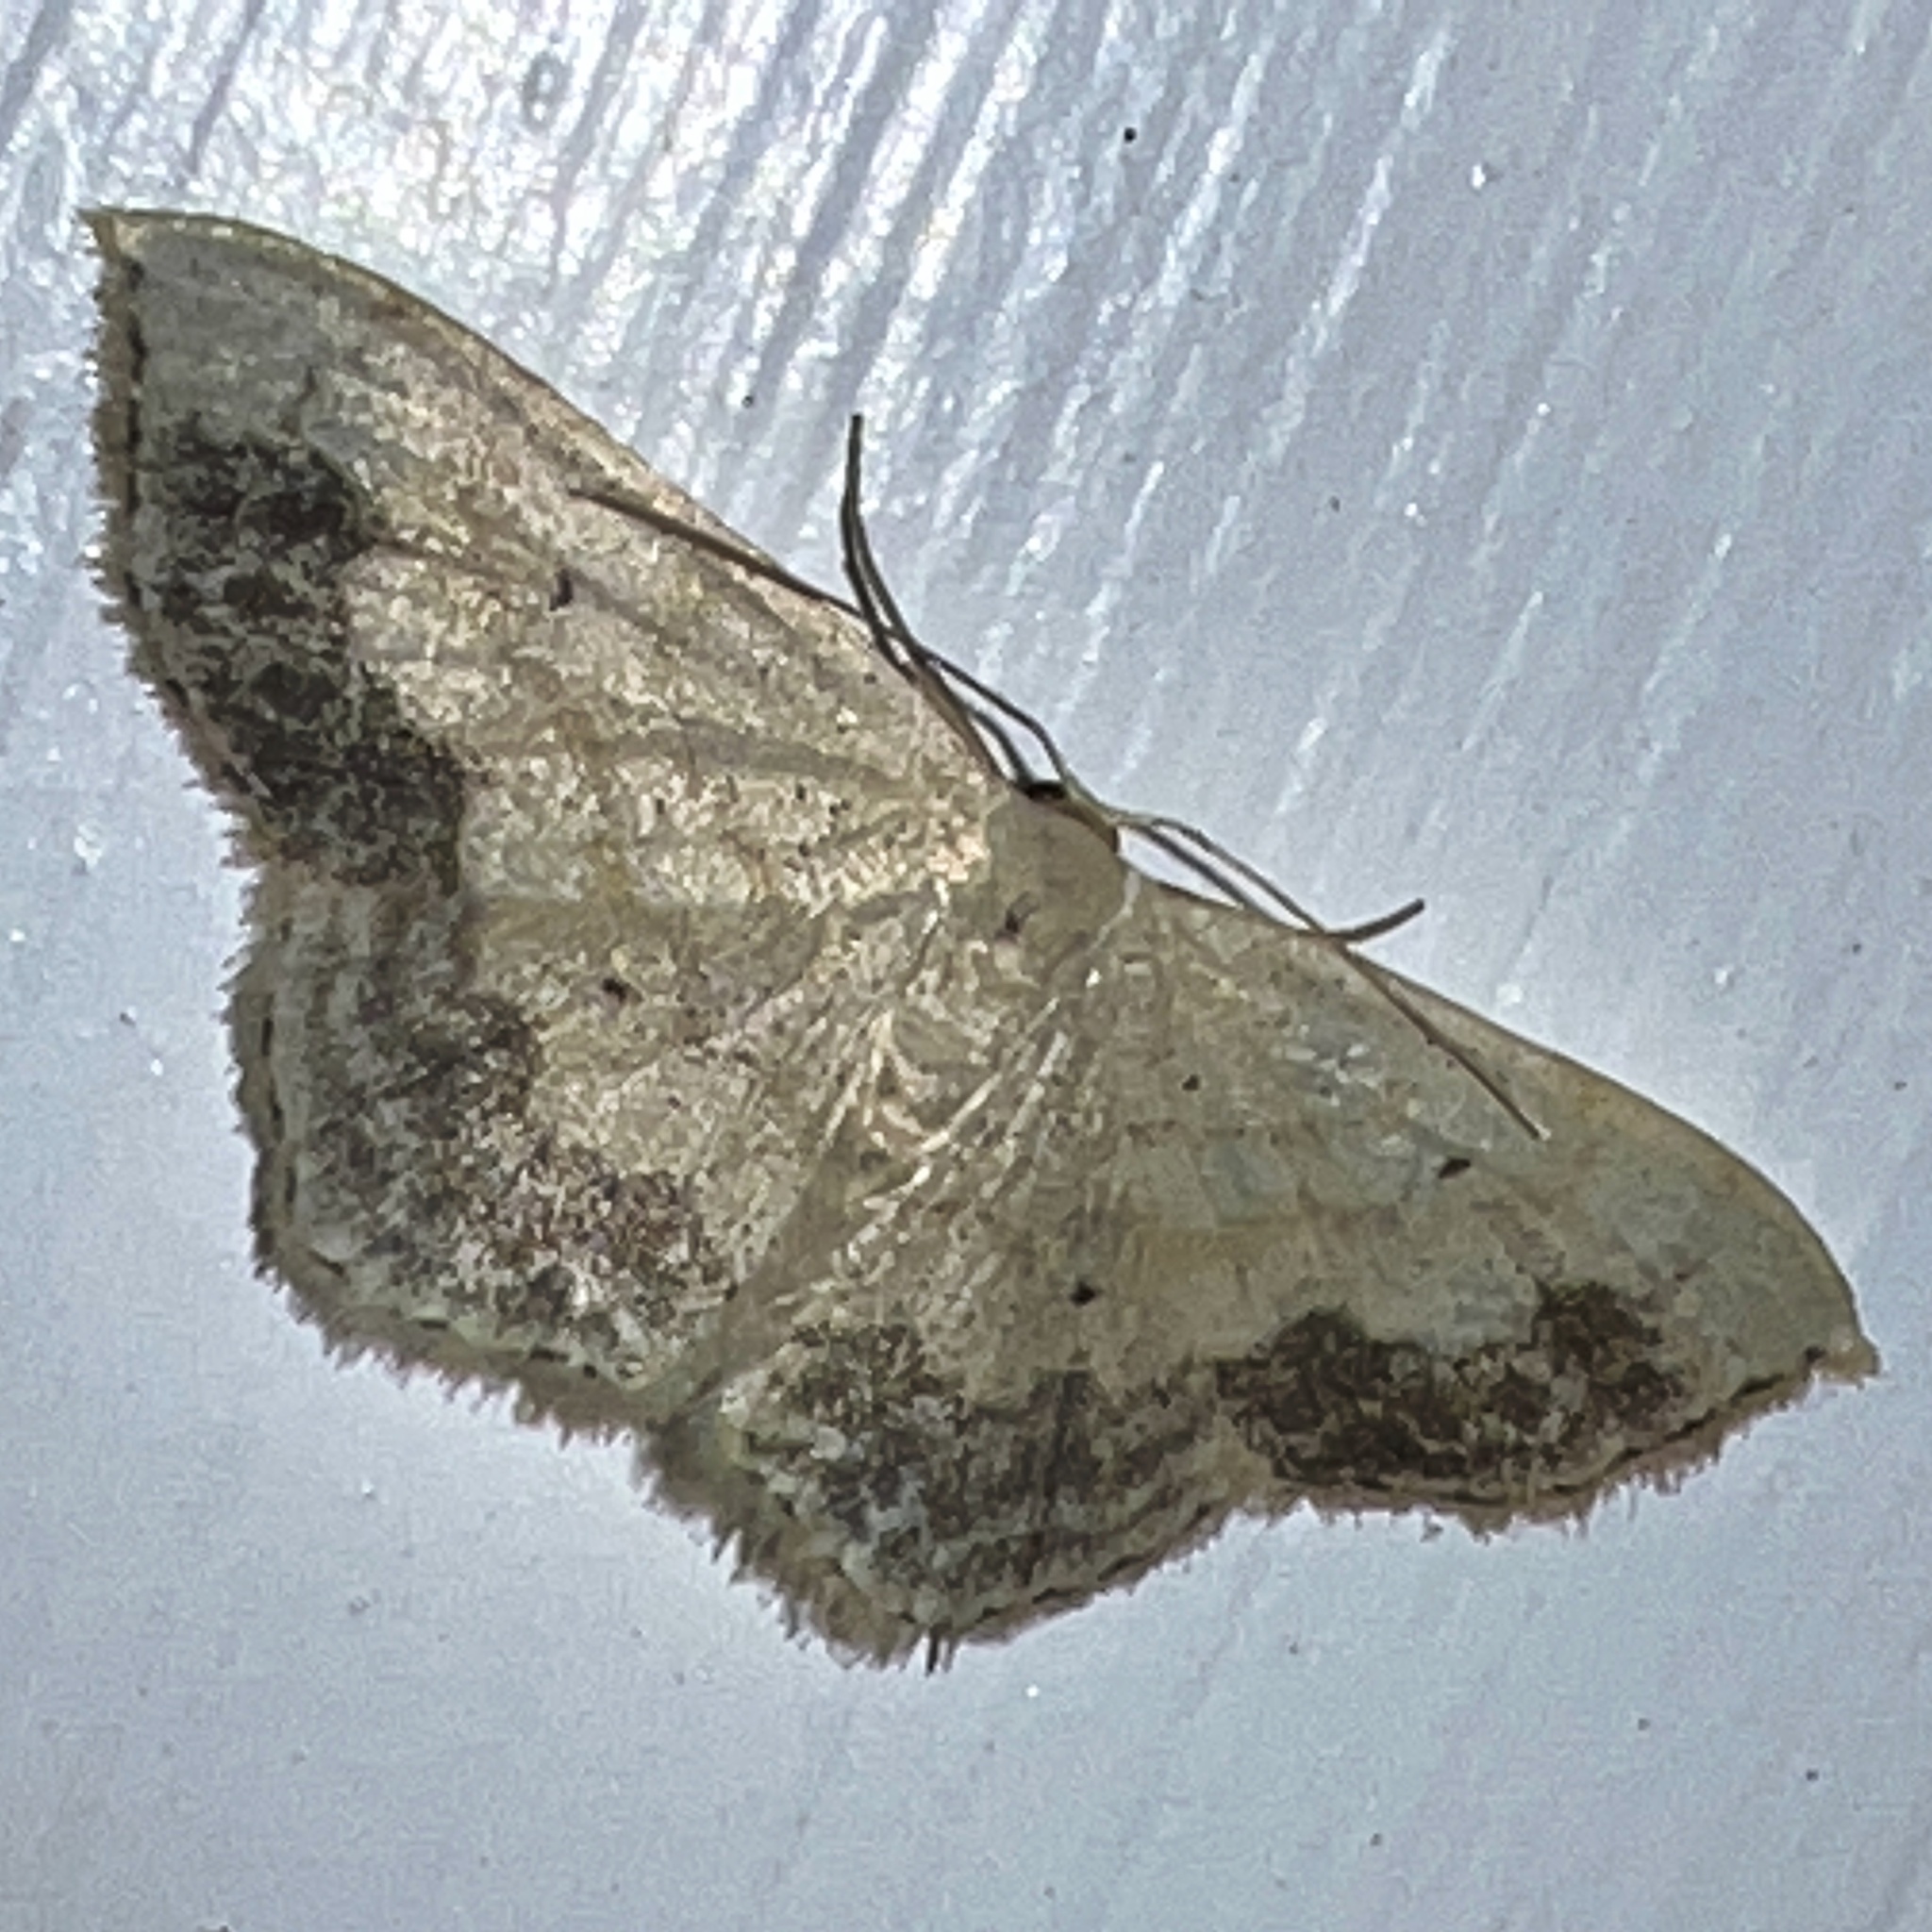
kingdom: Animalia
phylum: Arthropoda
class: Insecta
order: Lepidoptera
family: Geometridae
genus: Scopula
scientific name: Scopula limboundata
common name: Large lace border
